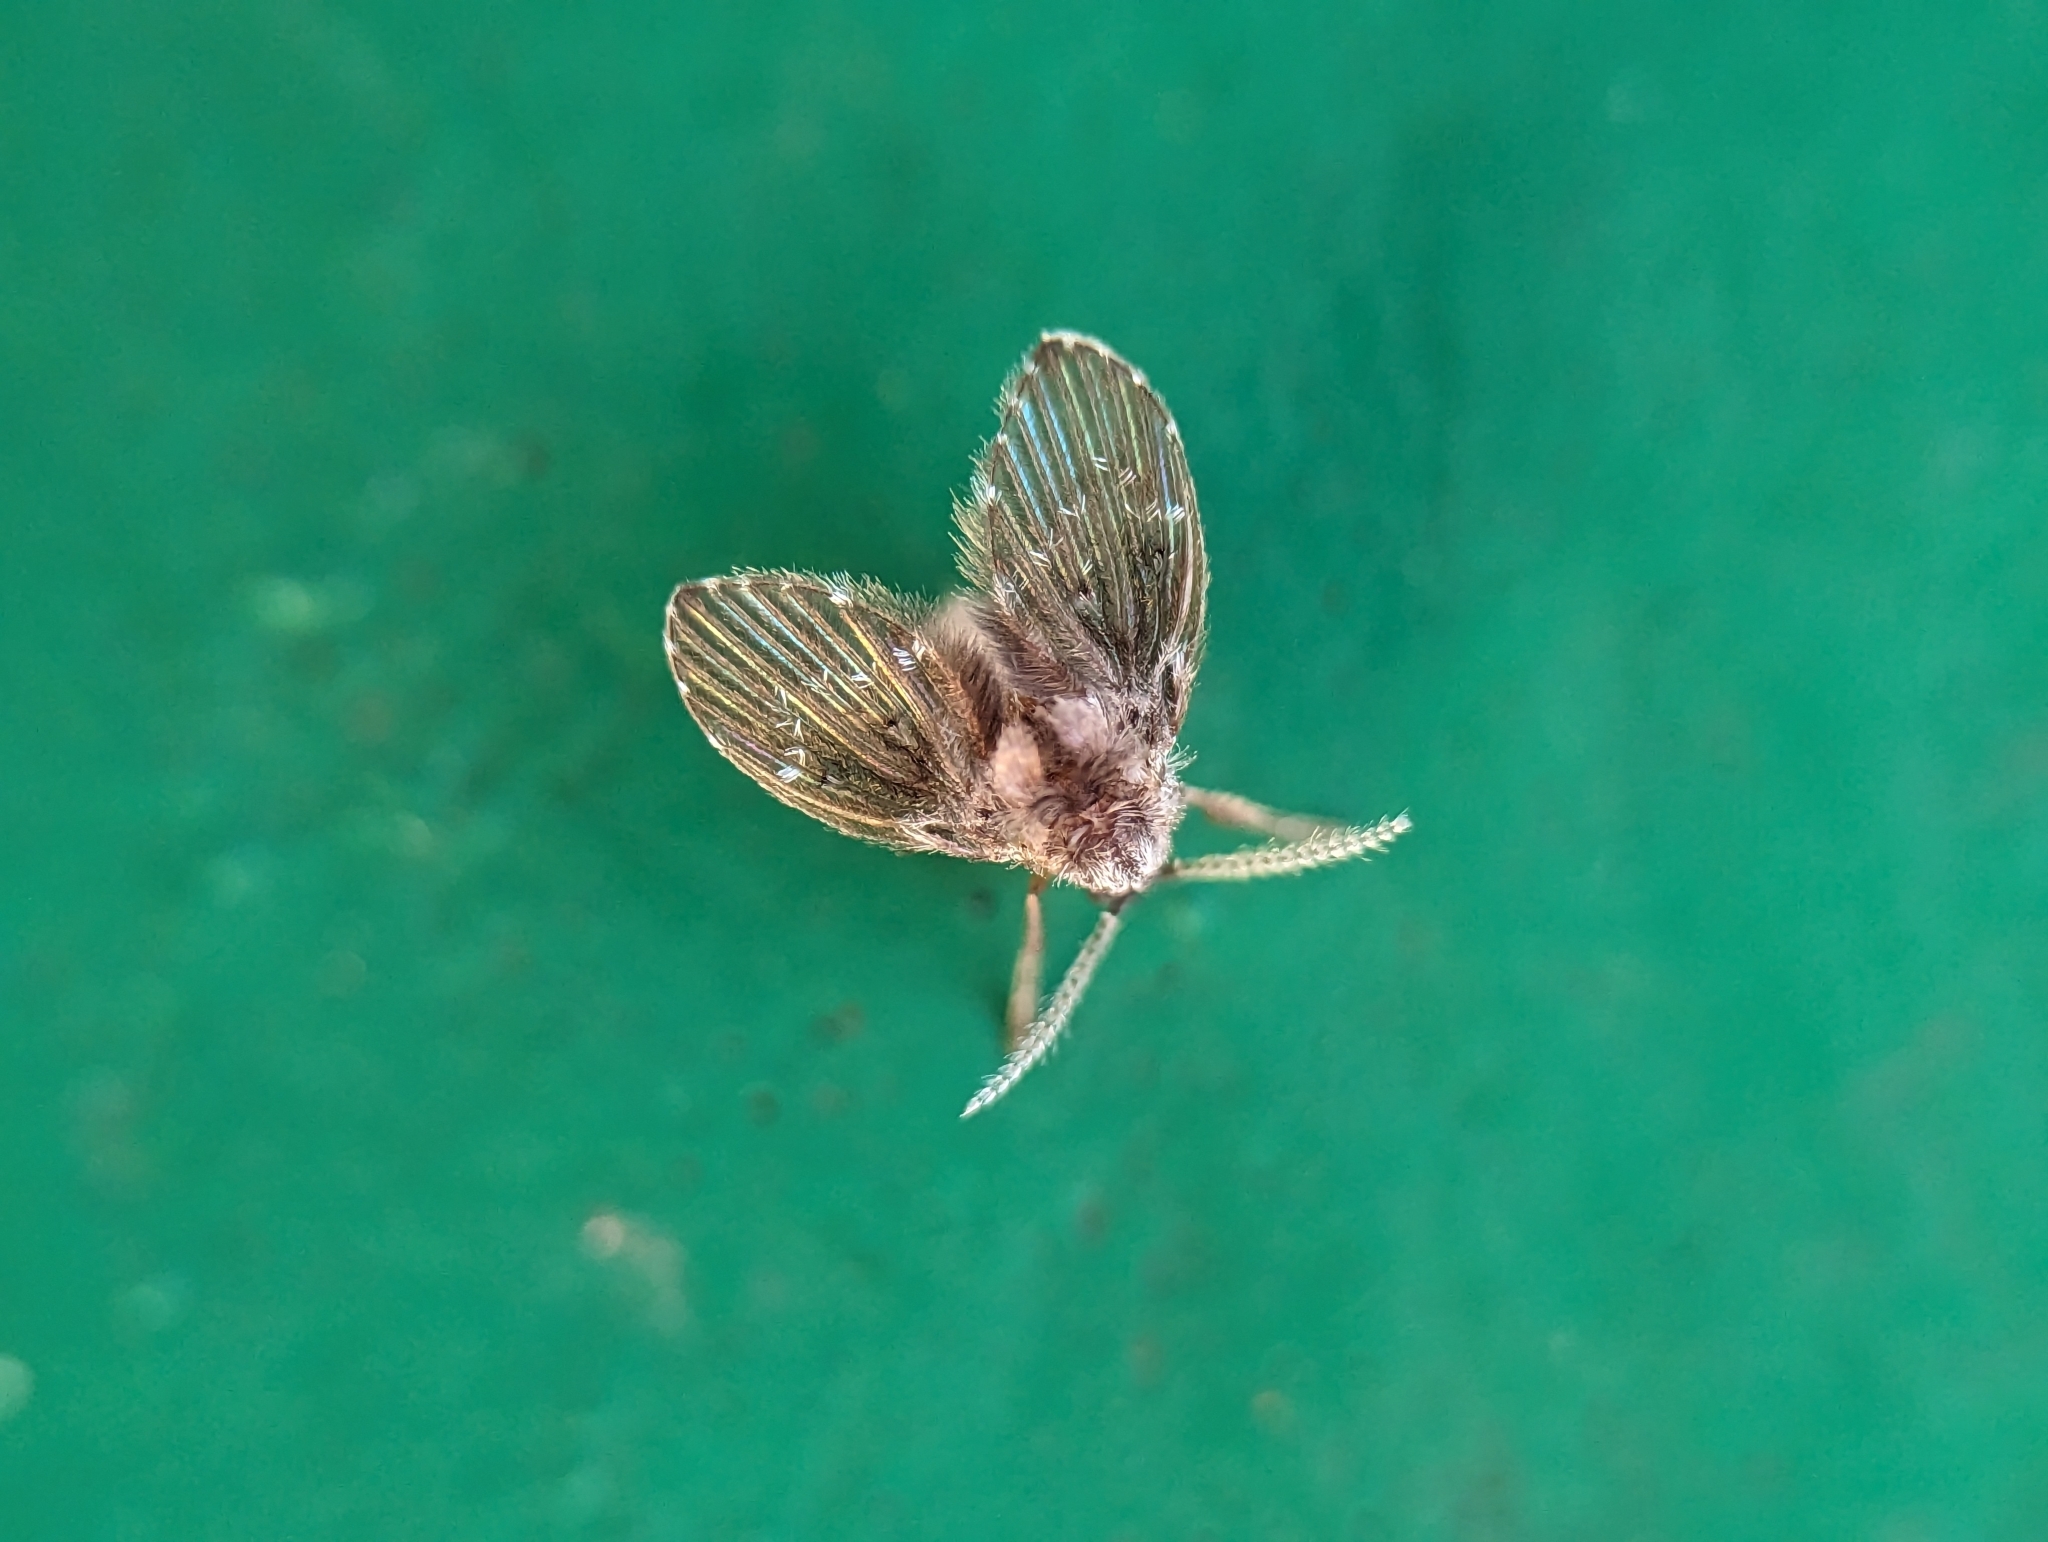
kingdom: Animalia
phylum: Arthropoda
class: Insecta
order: Diptera
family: Psychodidae
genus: Clogmia
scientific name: Clogmia albipunctatus
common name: White-spotted moth fly
